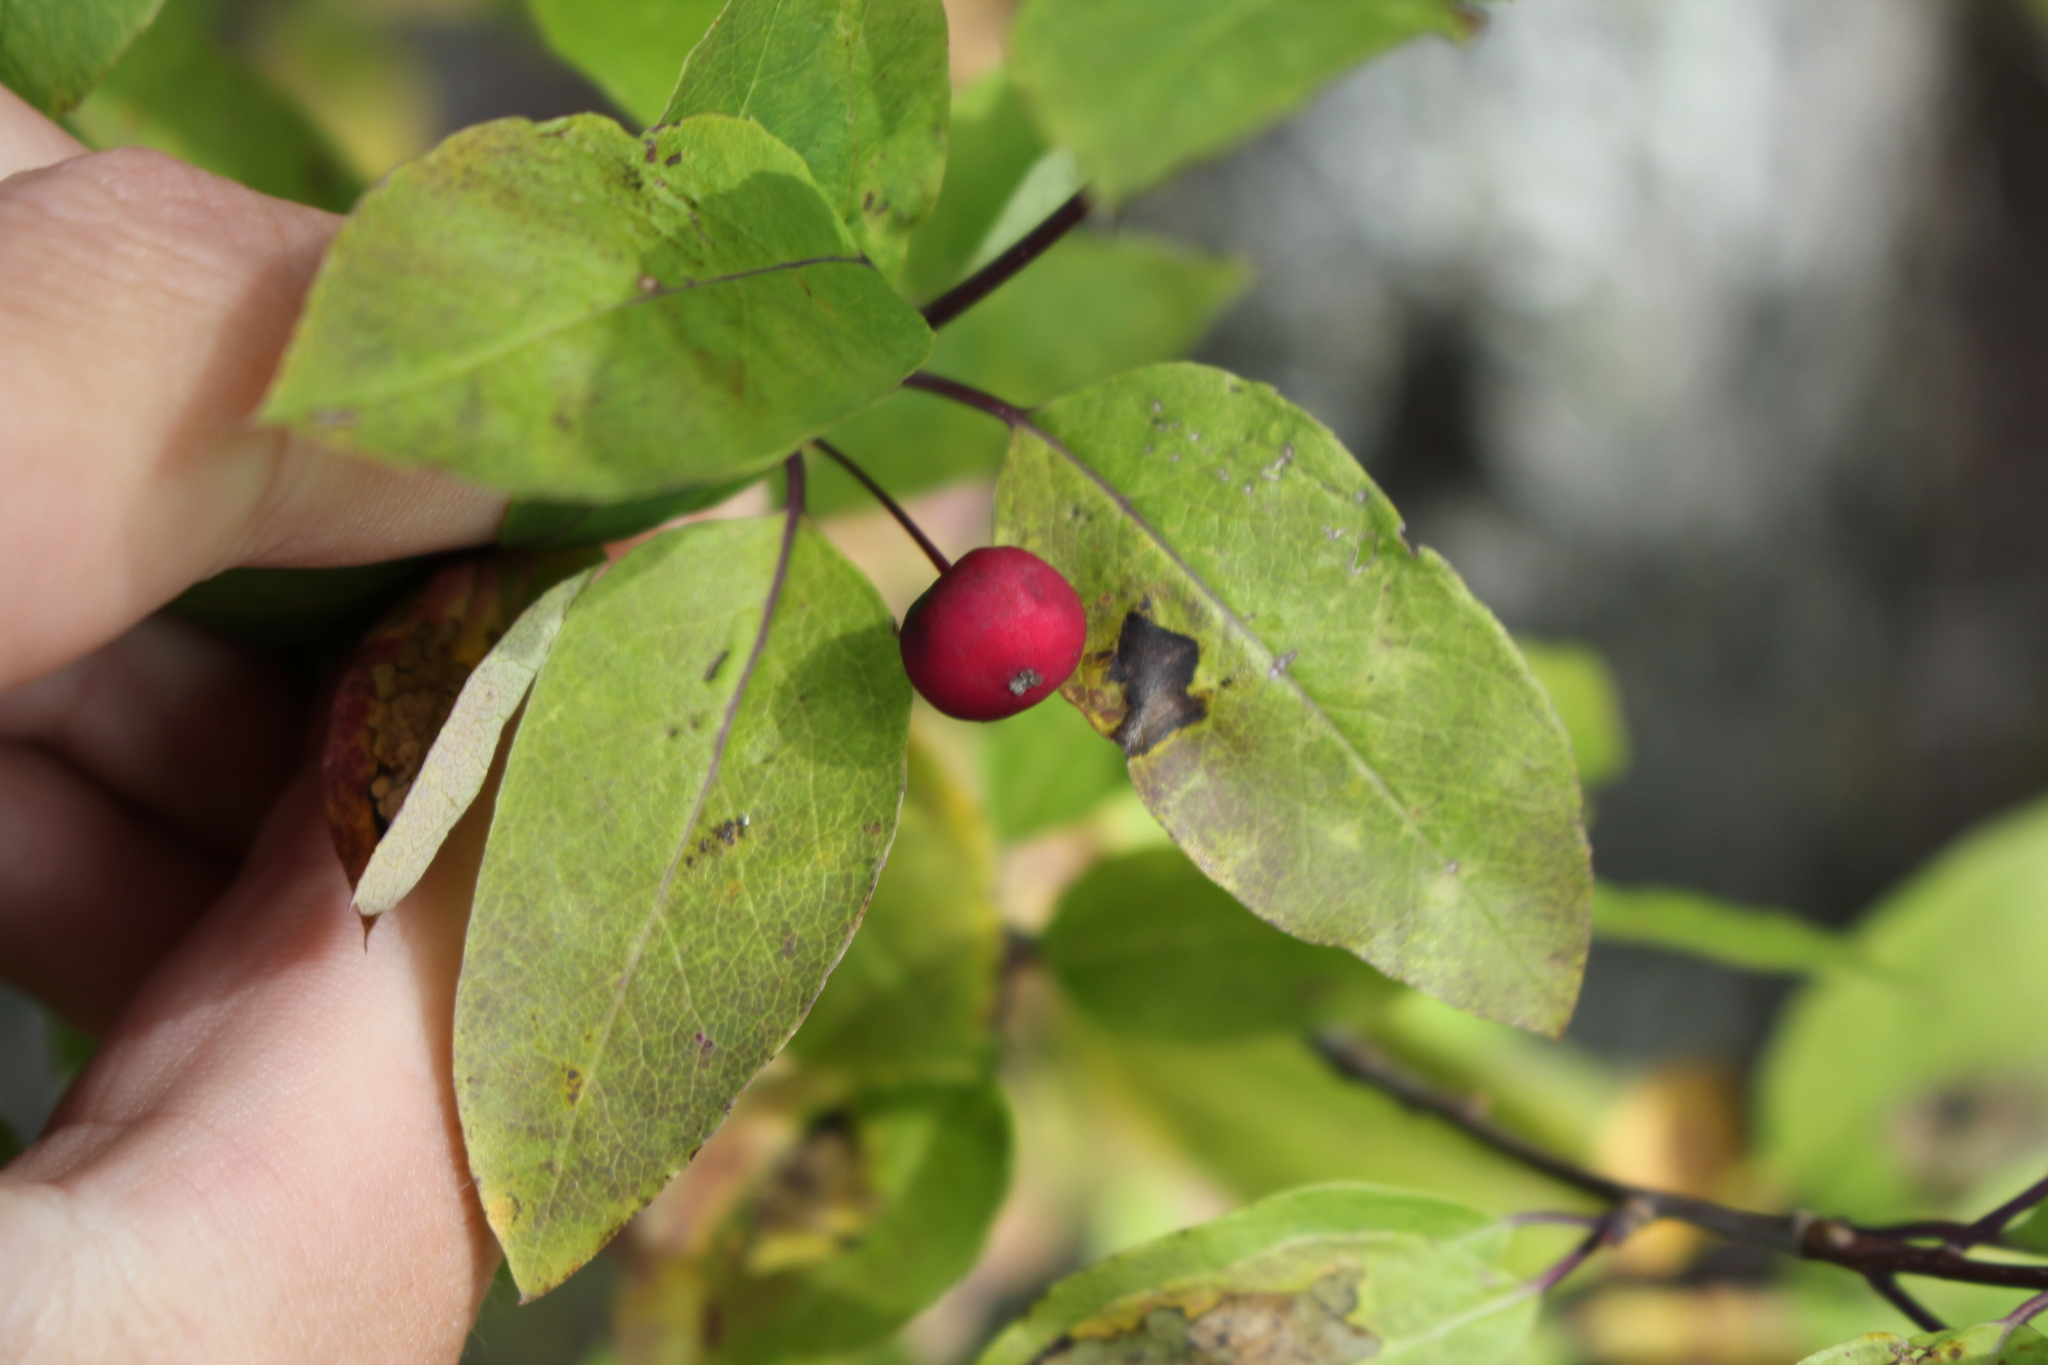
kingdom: Plantae
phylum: Tracheophyta
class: Magnoliopsida
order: Aquifoliales
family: Aquifoliaceae
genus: Ilex
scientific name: Ilex mucronata
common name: Catberry
